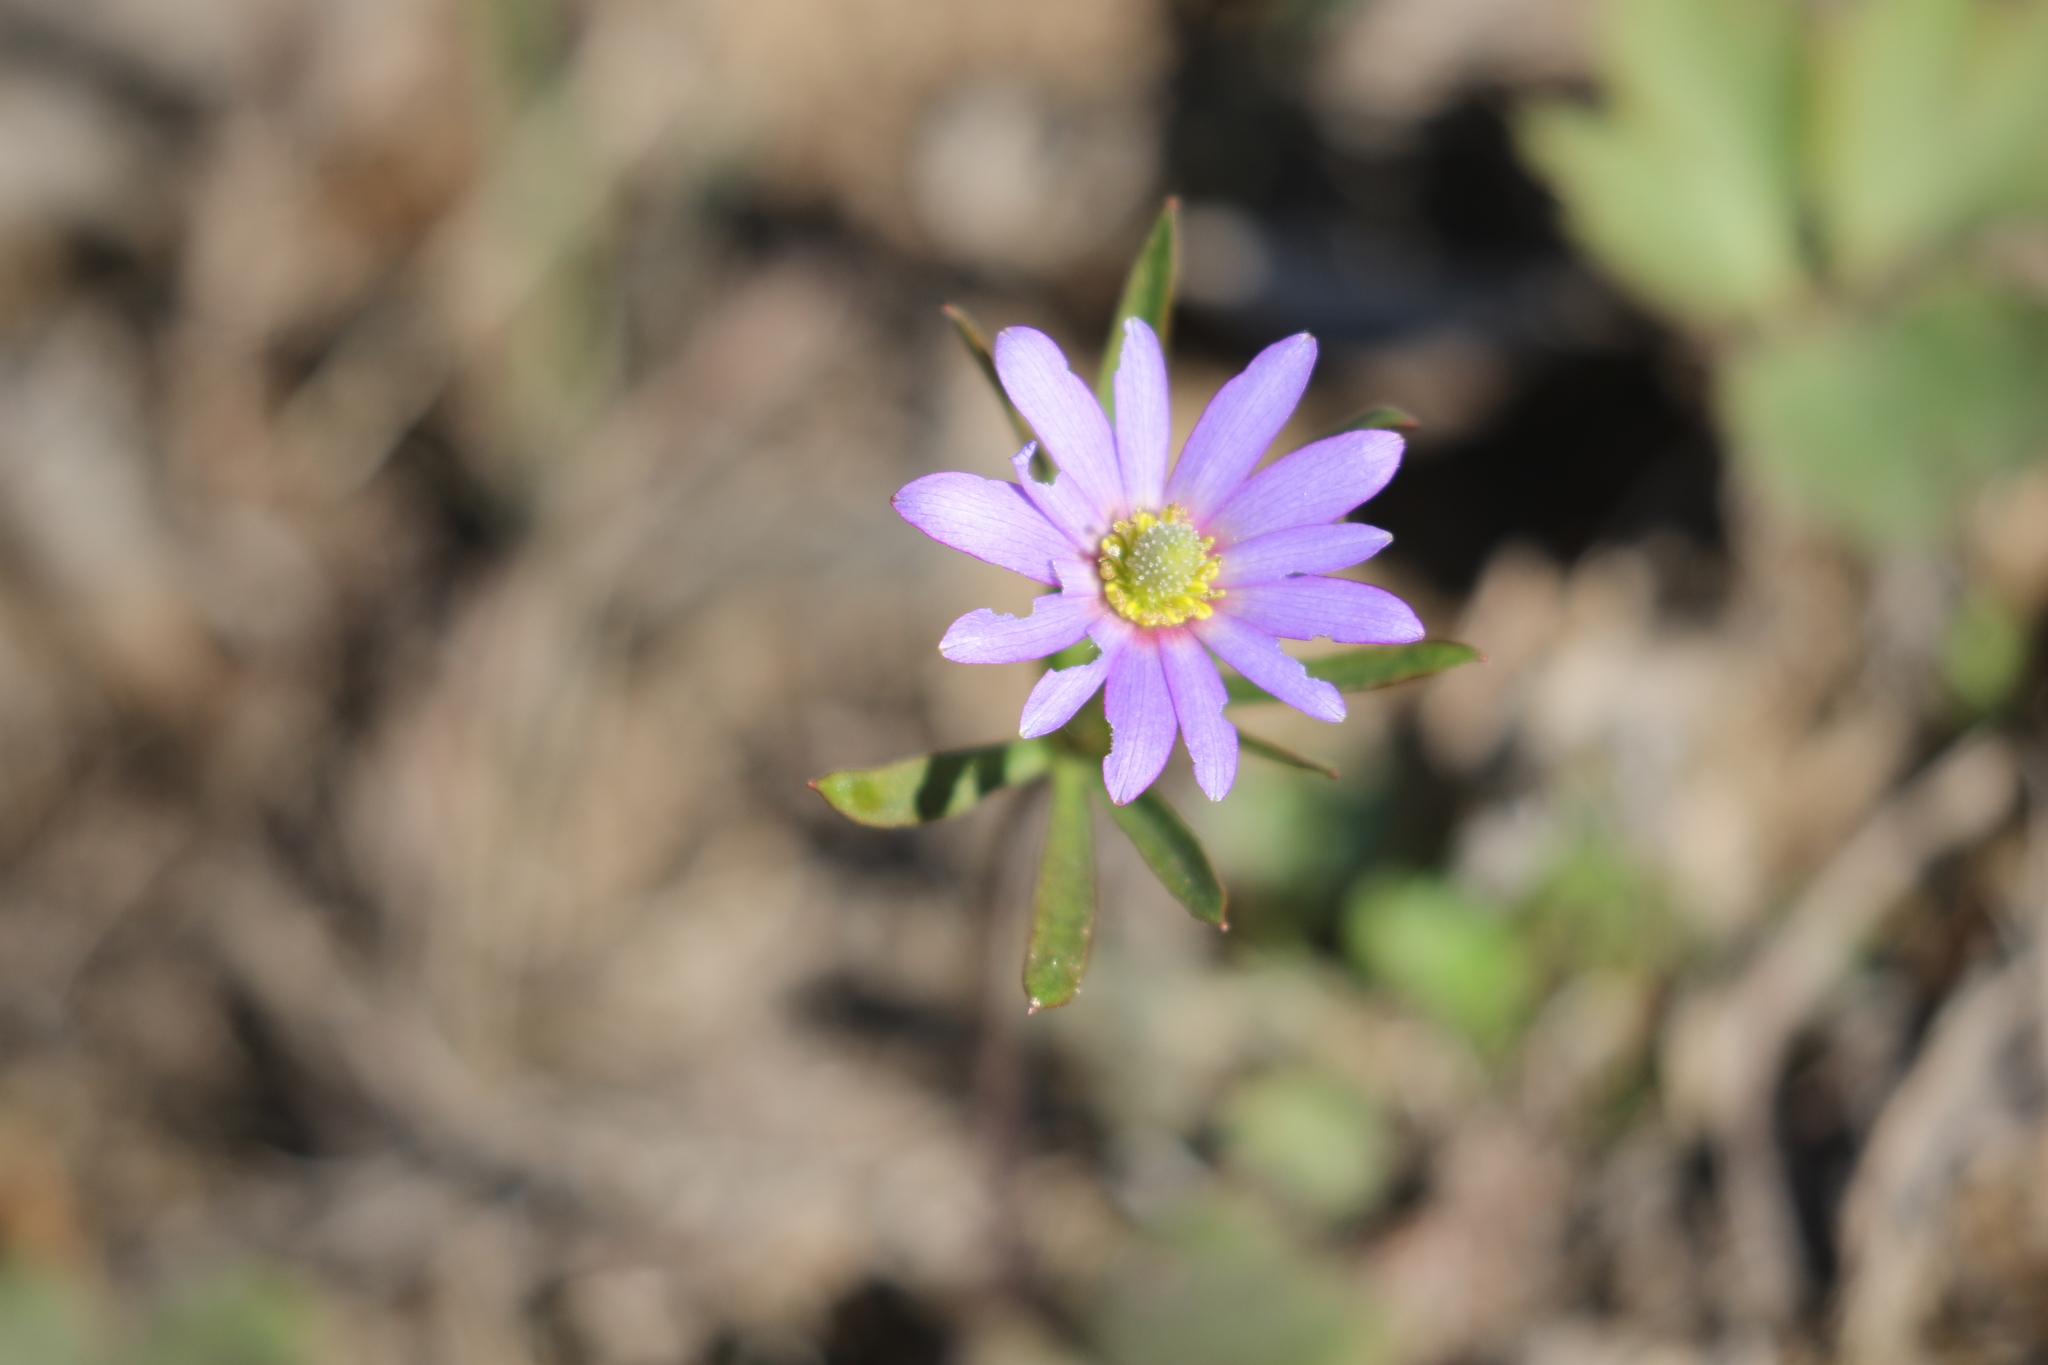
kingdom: Plantae
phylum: Tracheophyta
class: Magnoliopsida
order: Ranunculales
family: Ranunculaceae
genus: Anemone
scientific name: Anemone berlandieri
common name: Ten-petal anemone
